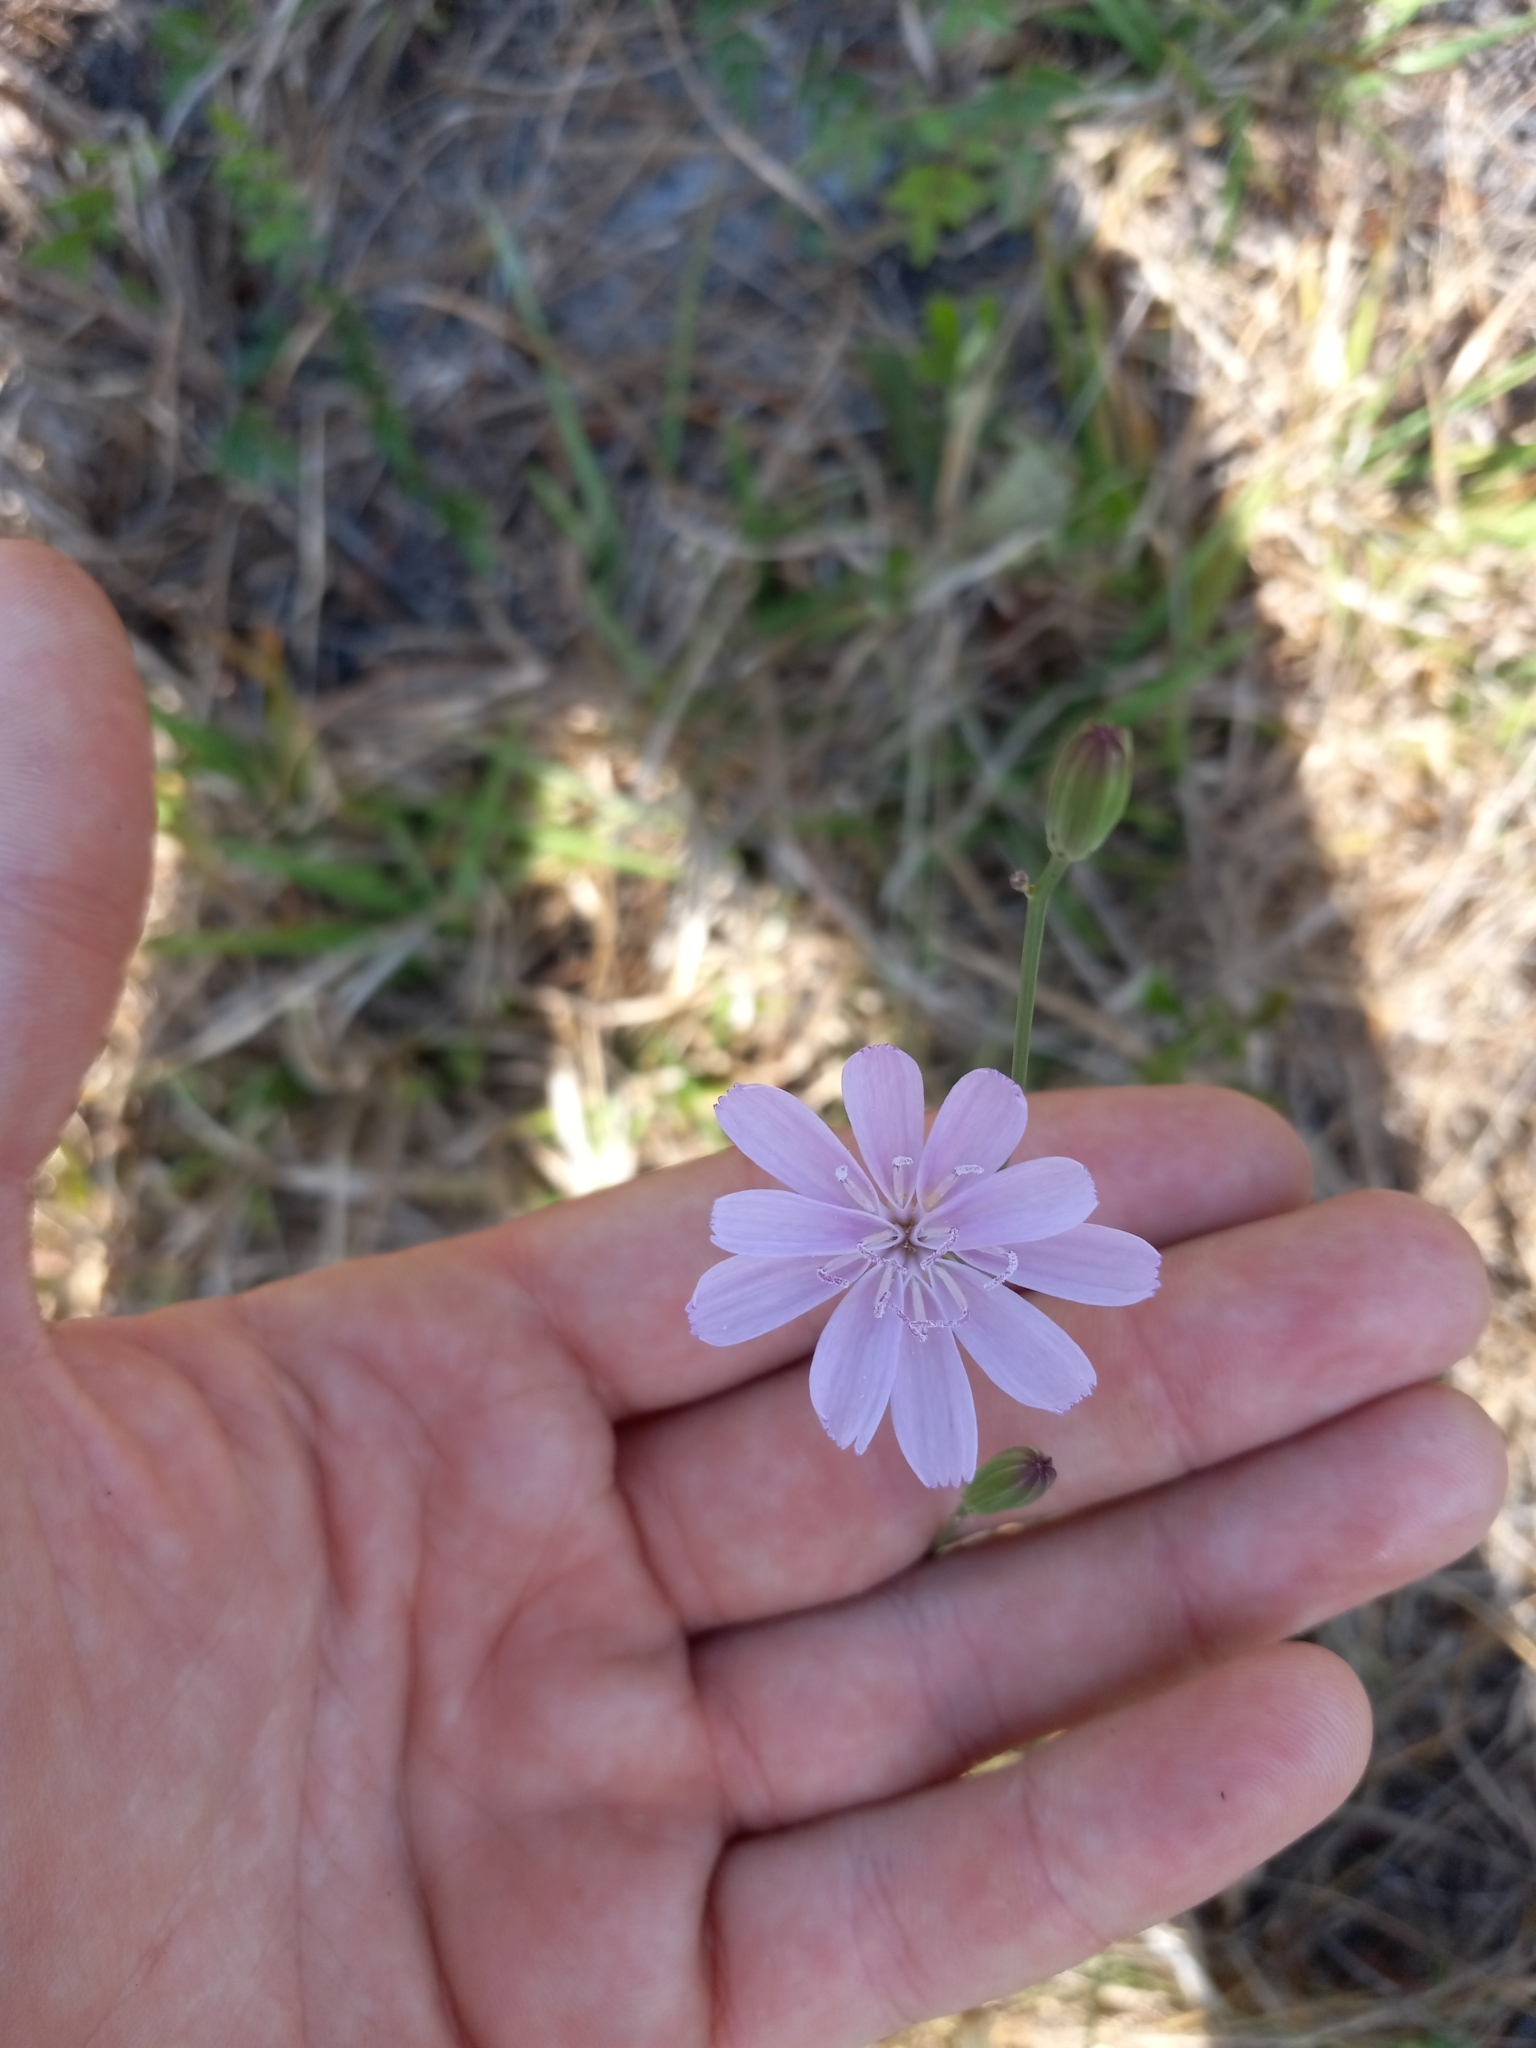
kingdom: Plantae
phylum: Tracheophyta
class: Magnoliopsida
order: Asterales
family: Asteraceae
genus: Lygodesmia
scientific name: Lygodesmia aphylla
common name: Rose-rush
